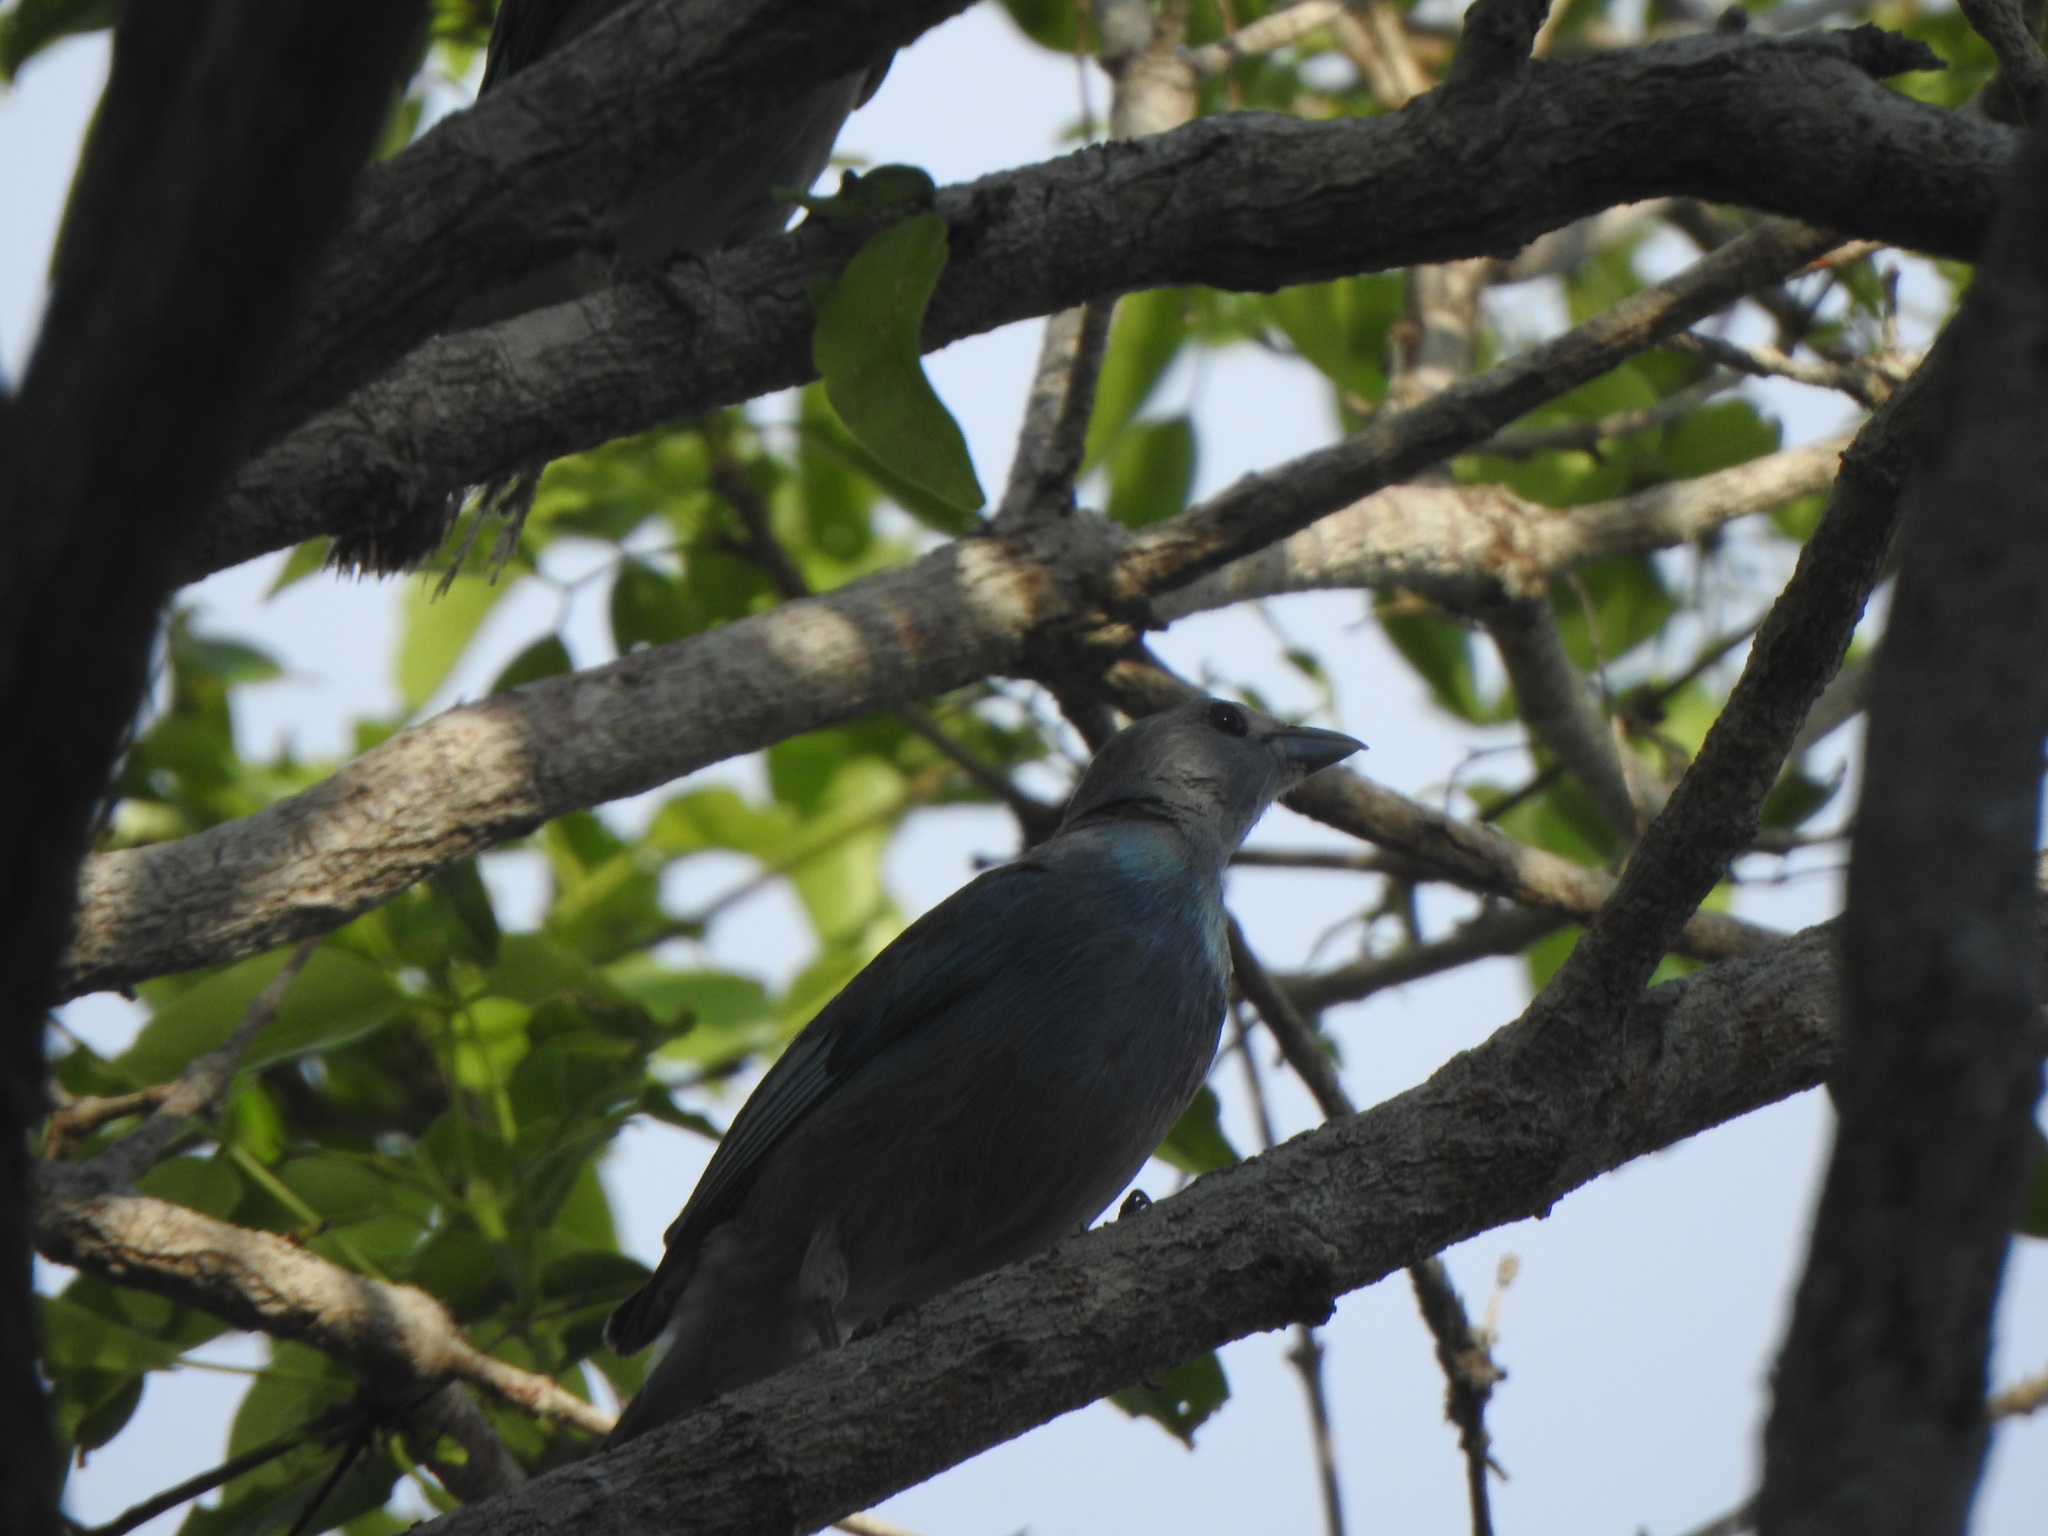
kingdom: Animalia
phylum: Chordata
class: Aves
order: Passeriformes
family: Thraupidae
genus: Thraupis
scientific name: Thraupis glaucocolpa
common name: Glaucous tanager
